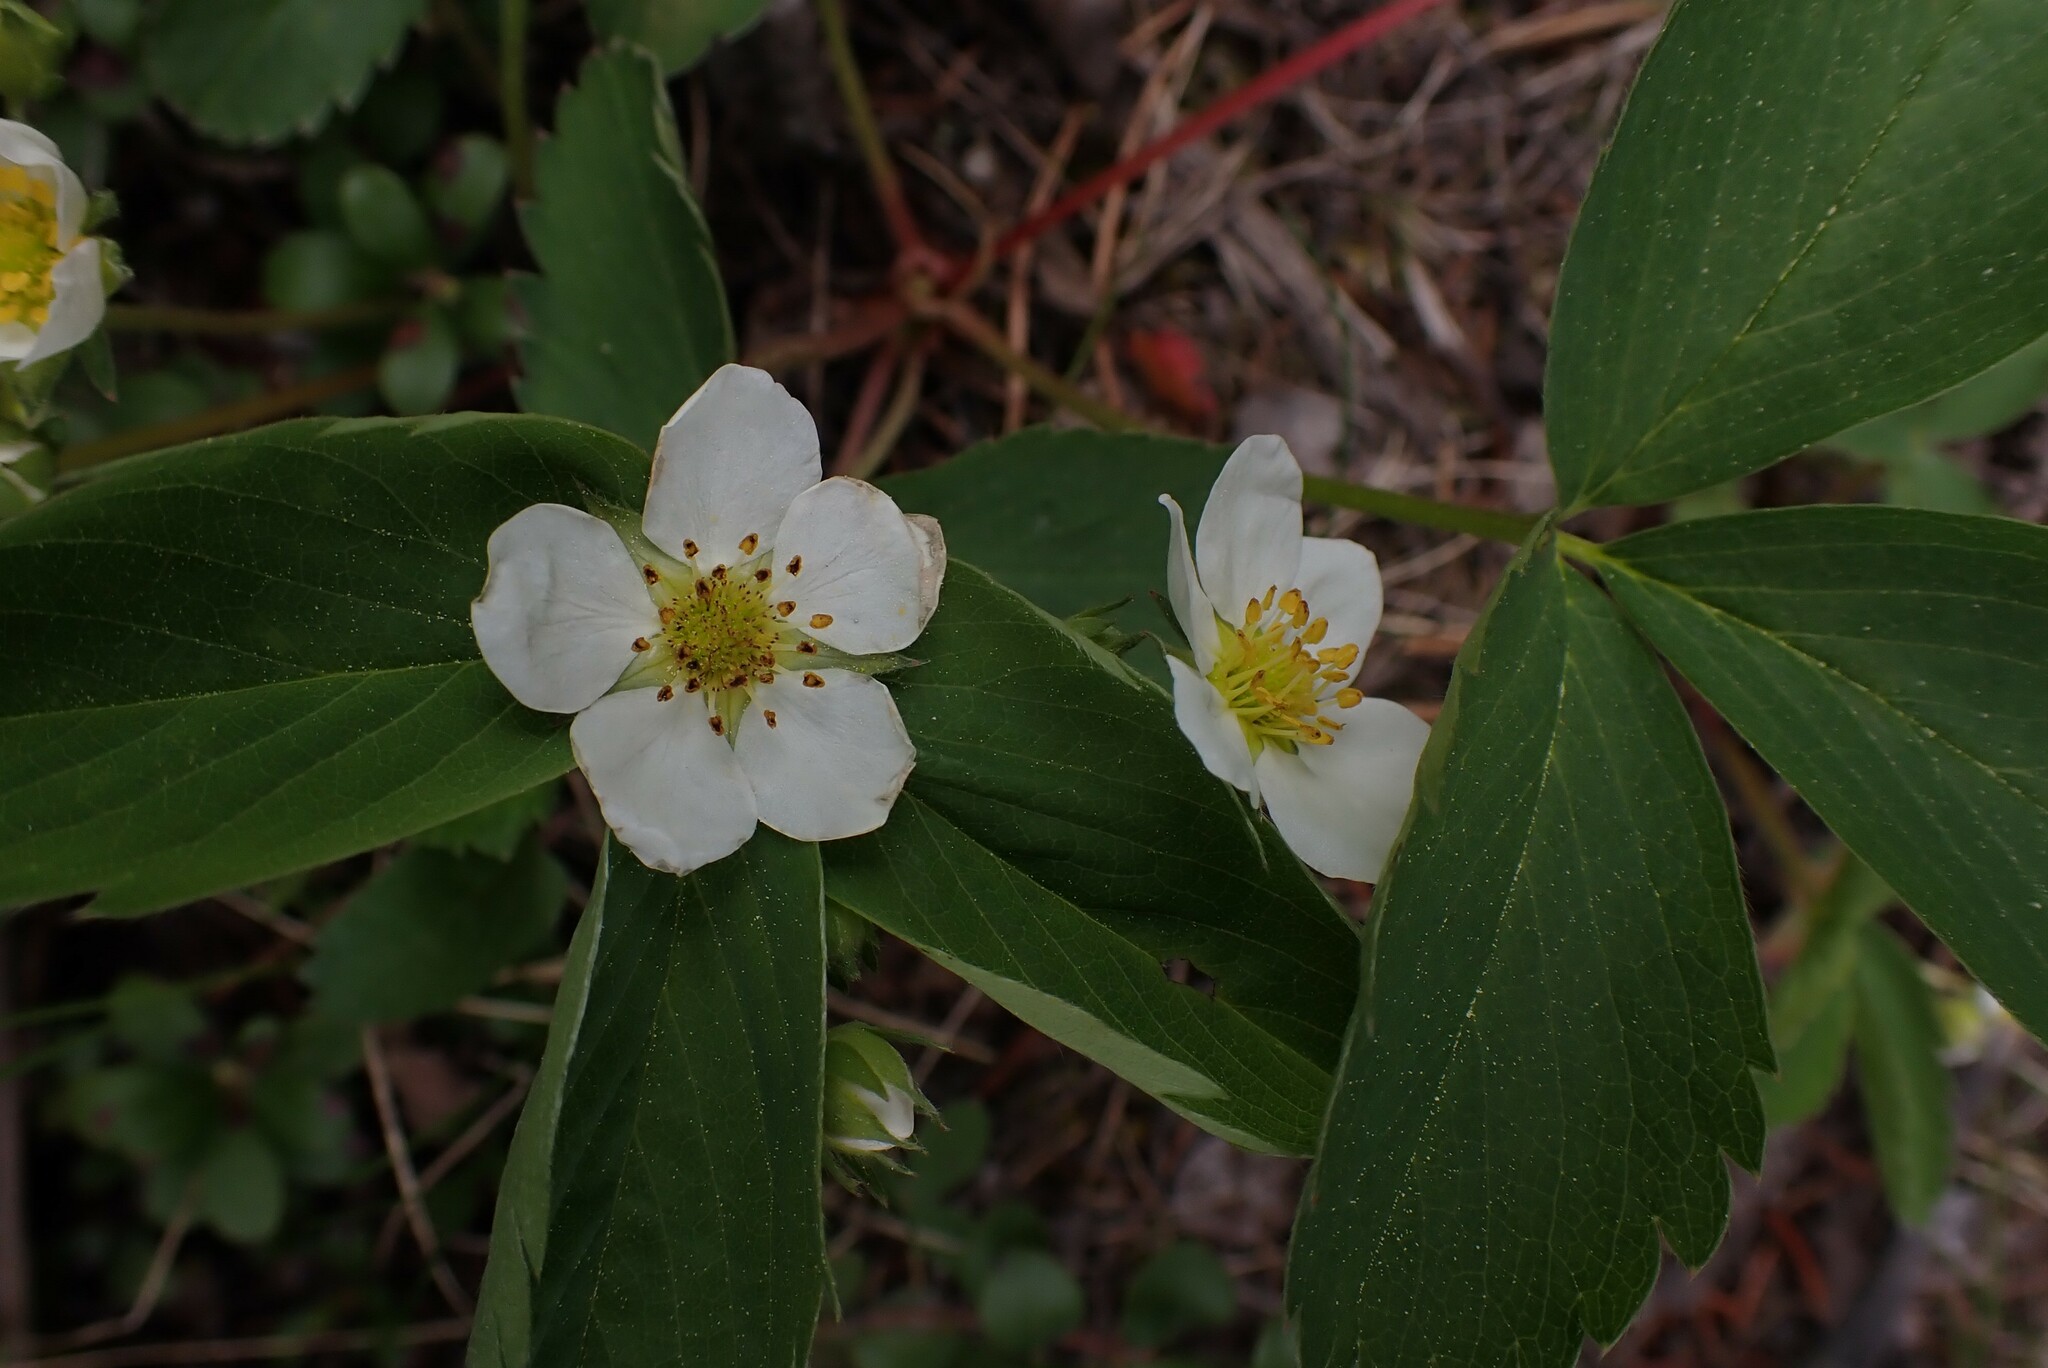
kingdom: Plantae
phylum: Tracheophyta
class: Magnoliopsida
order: Rosales
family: Rosaceae
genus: Fragaria
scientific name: Fragaria virginiana
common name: Thickleaved wild strawberry
